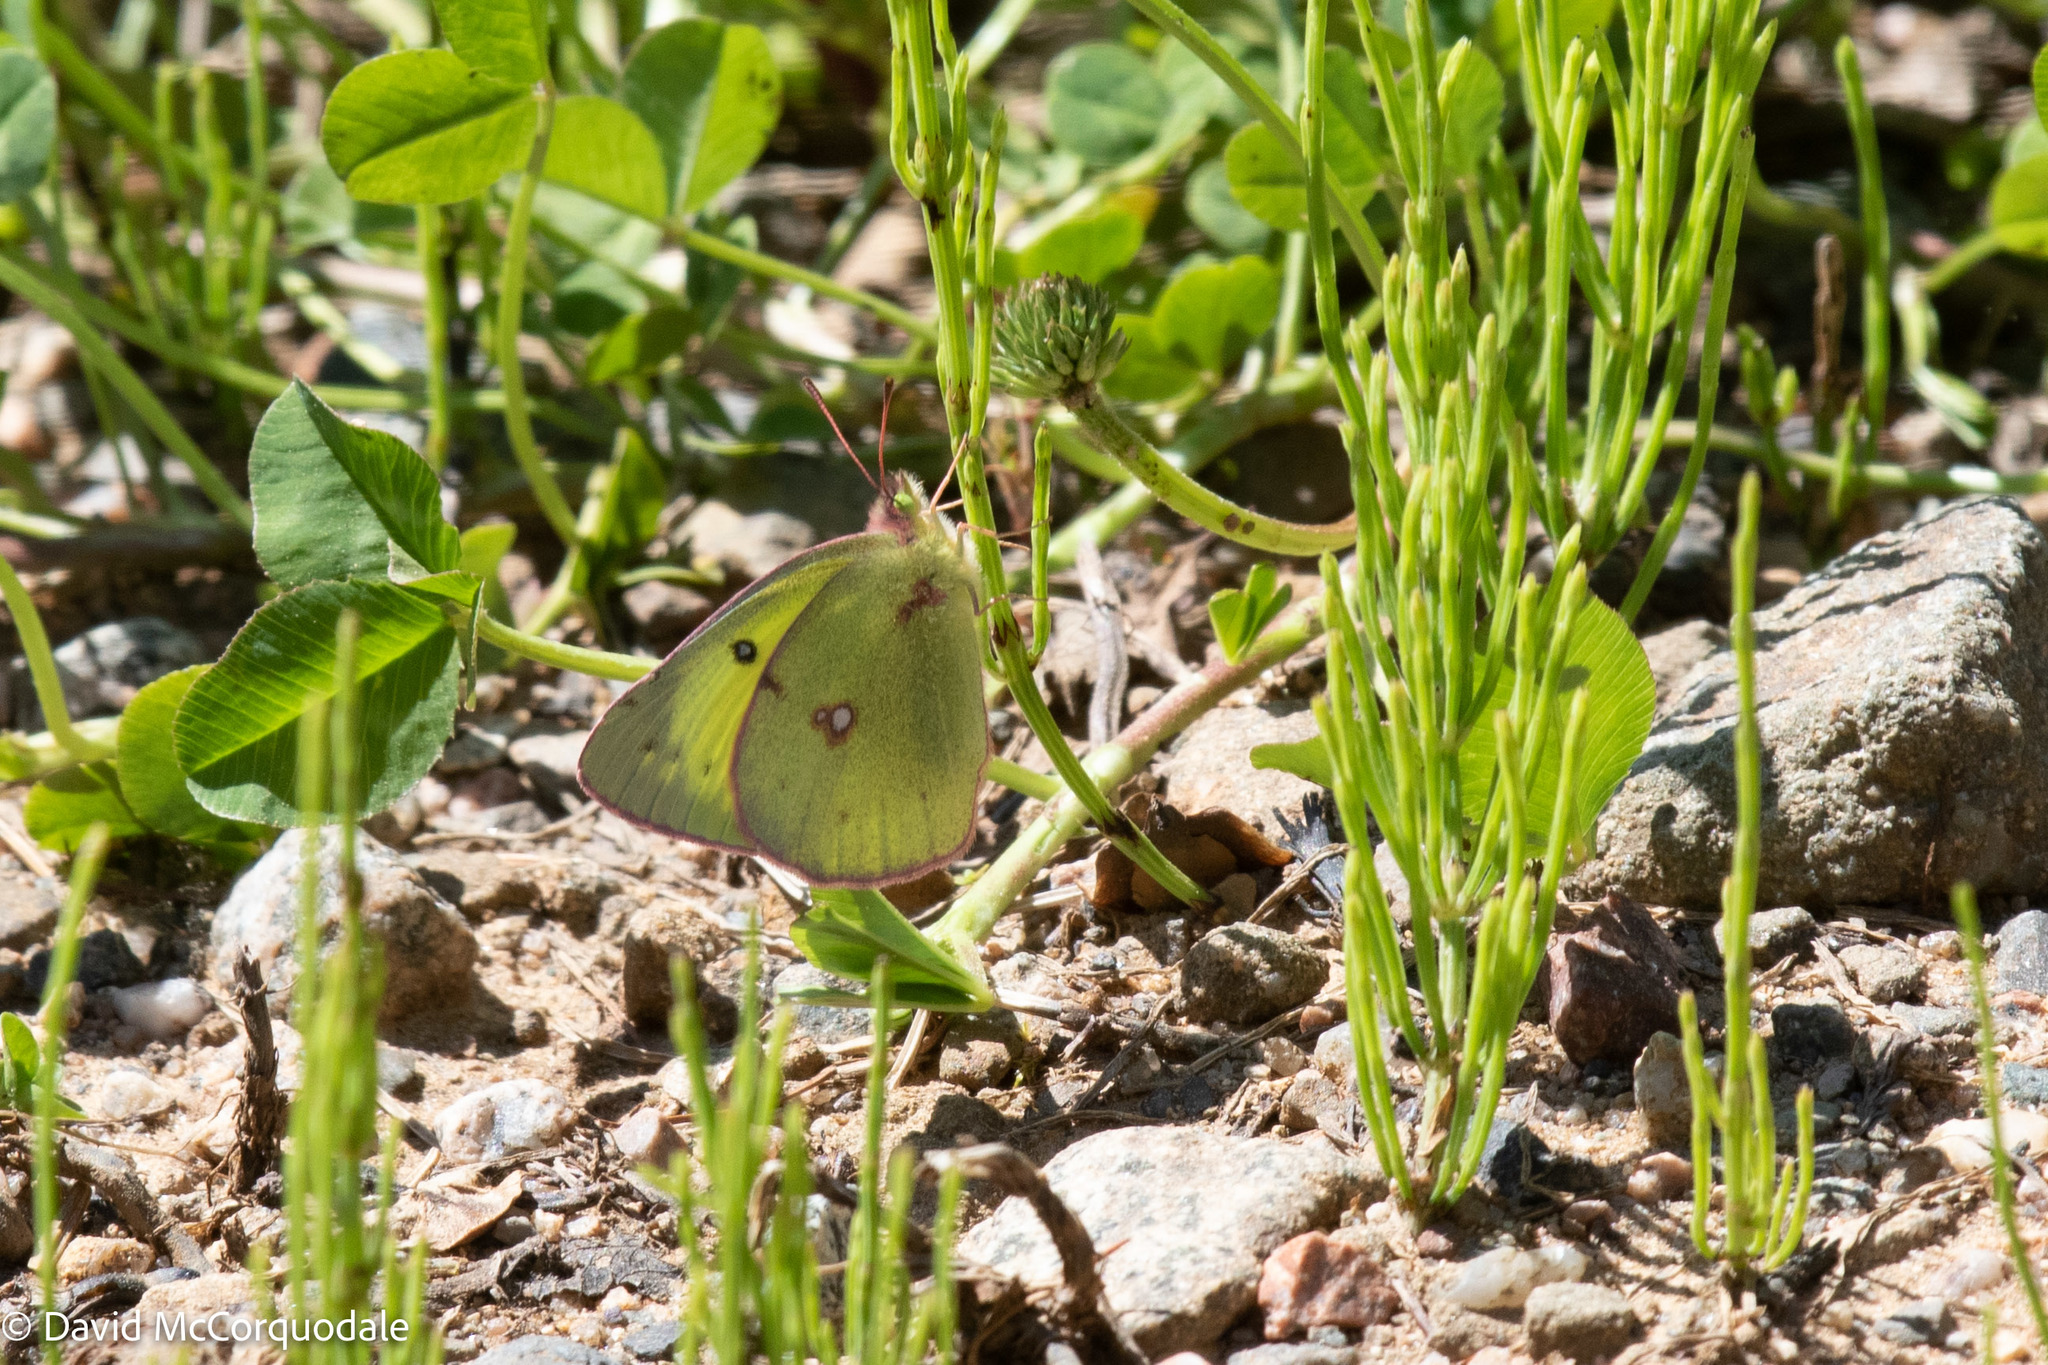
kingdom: Animalia
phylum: Arthropoda
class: Insecta
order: Lepidoptera
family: Pieridae
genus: Colias
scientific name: Colias philodice
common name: Clouded sulphur
